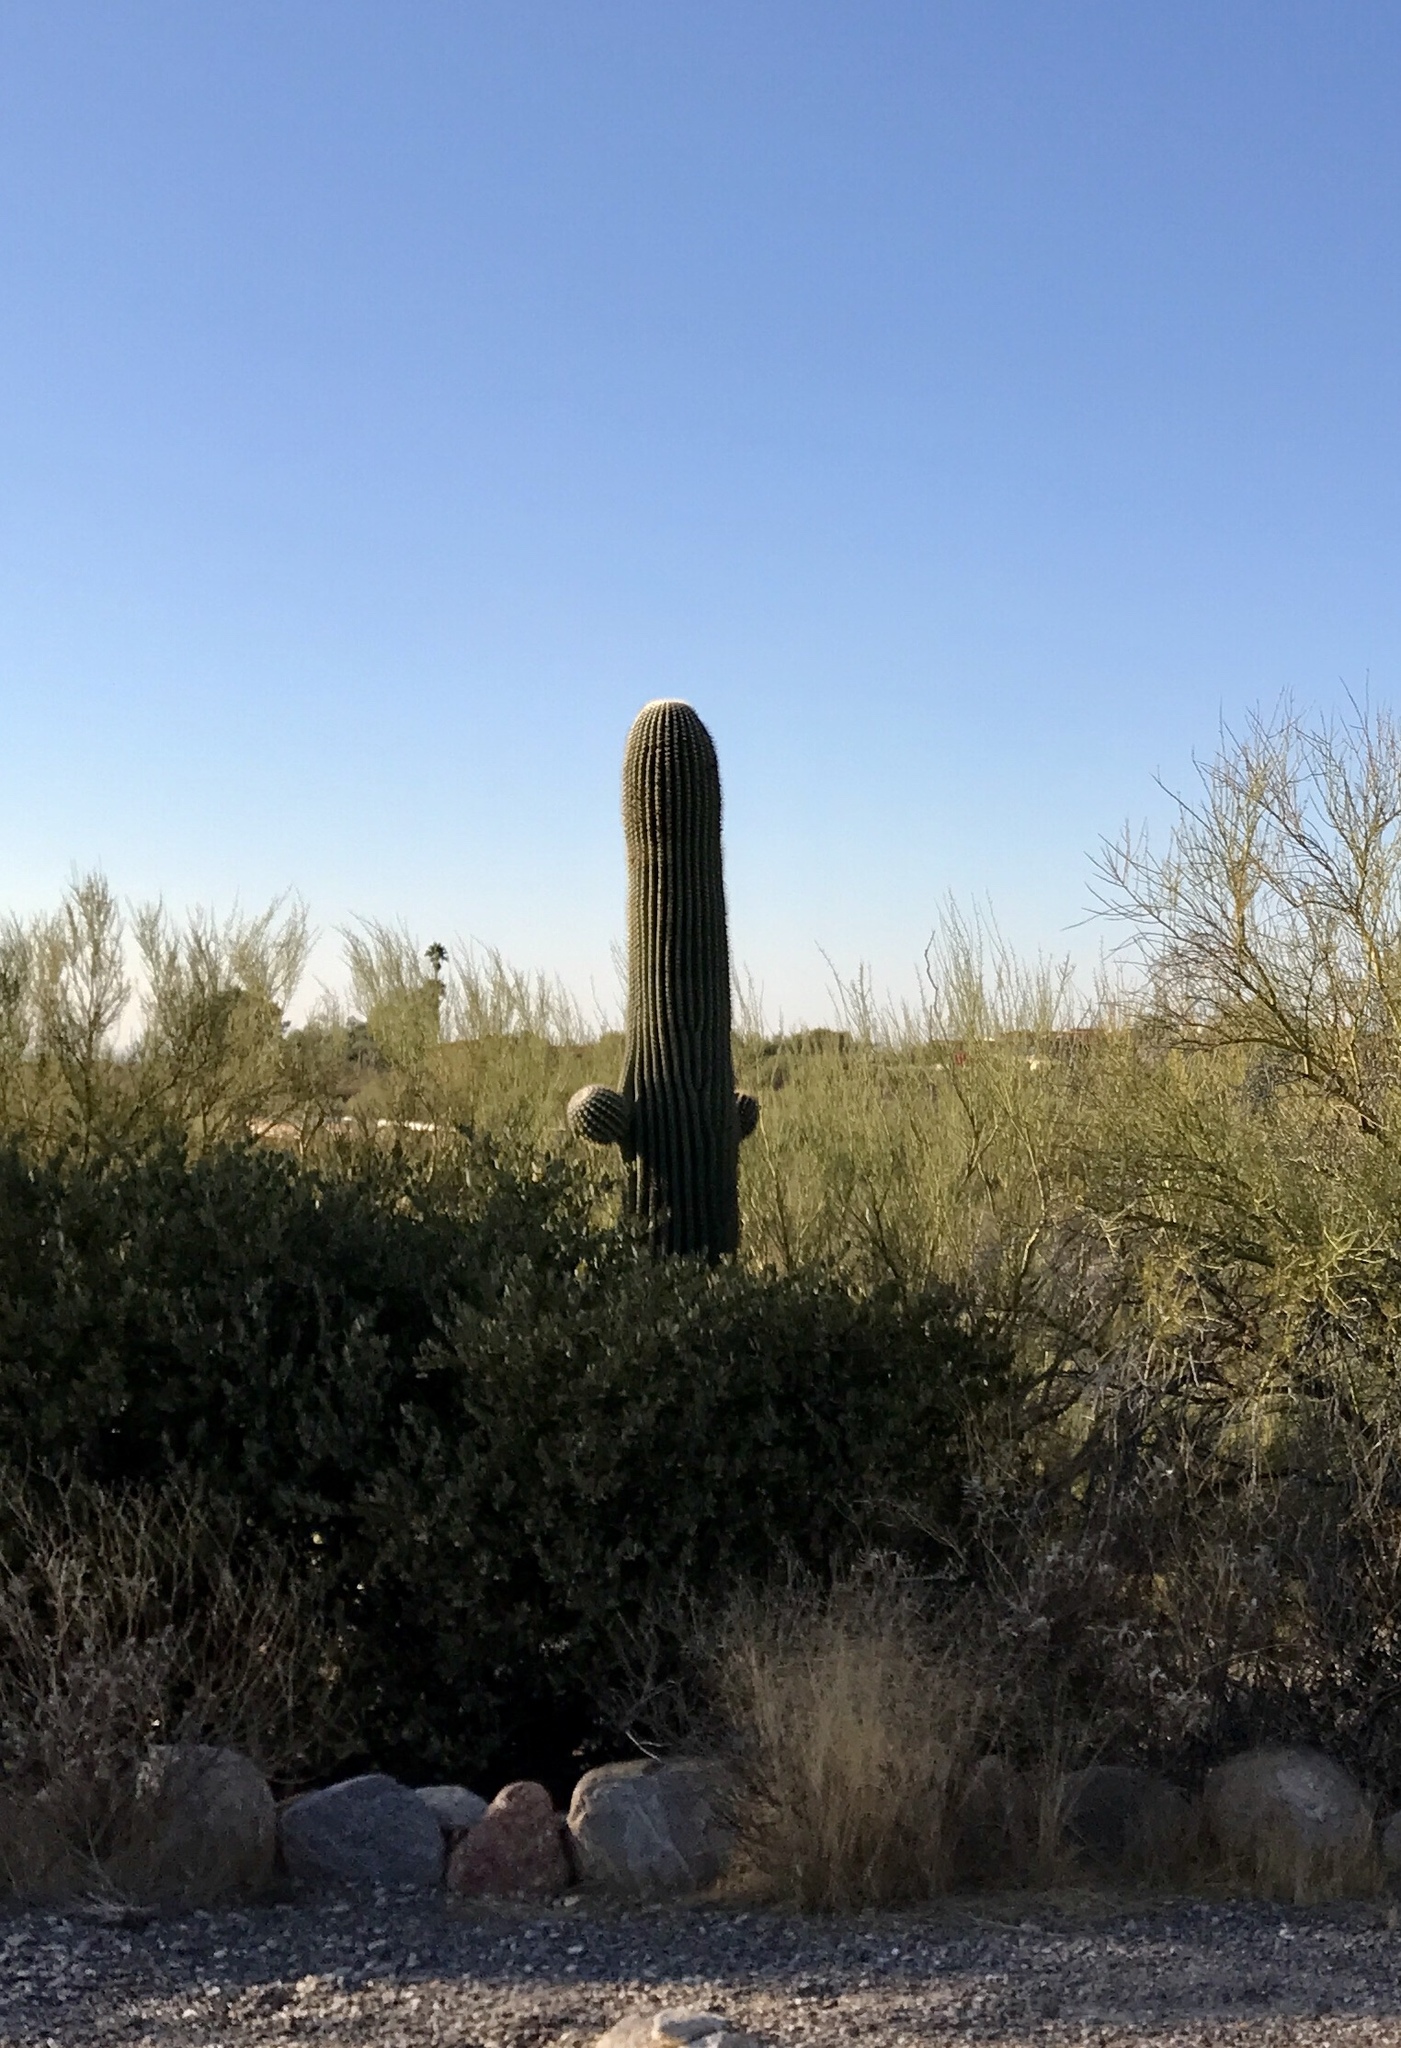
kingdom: Plantae
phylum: Tracheophyta
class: Magnoliopsida
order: Caryophyllales
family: Cactaceae
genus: Carnegiea
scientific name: Carnegiea gigantea
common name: Saguaro
